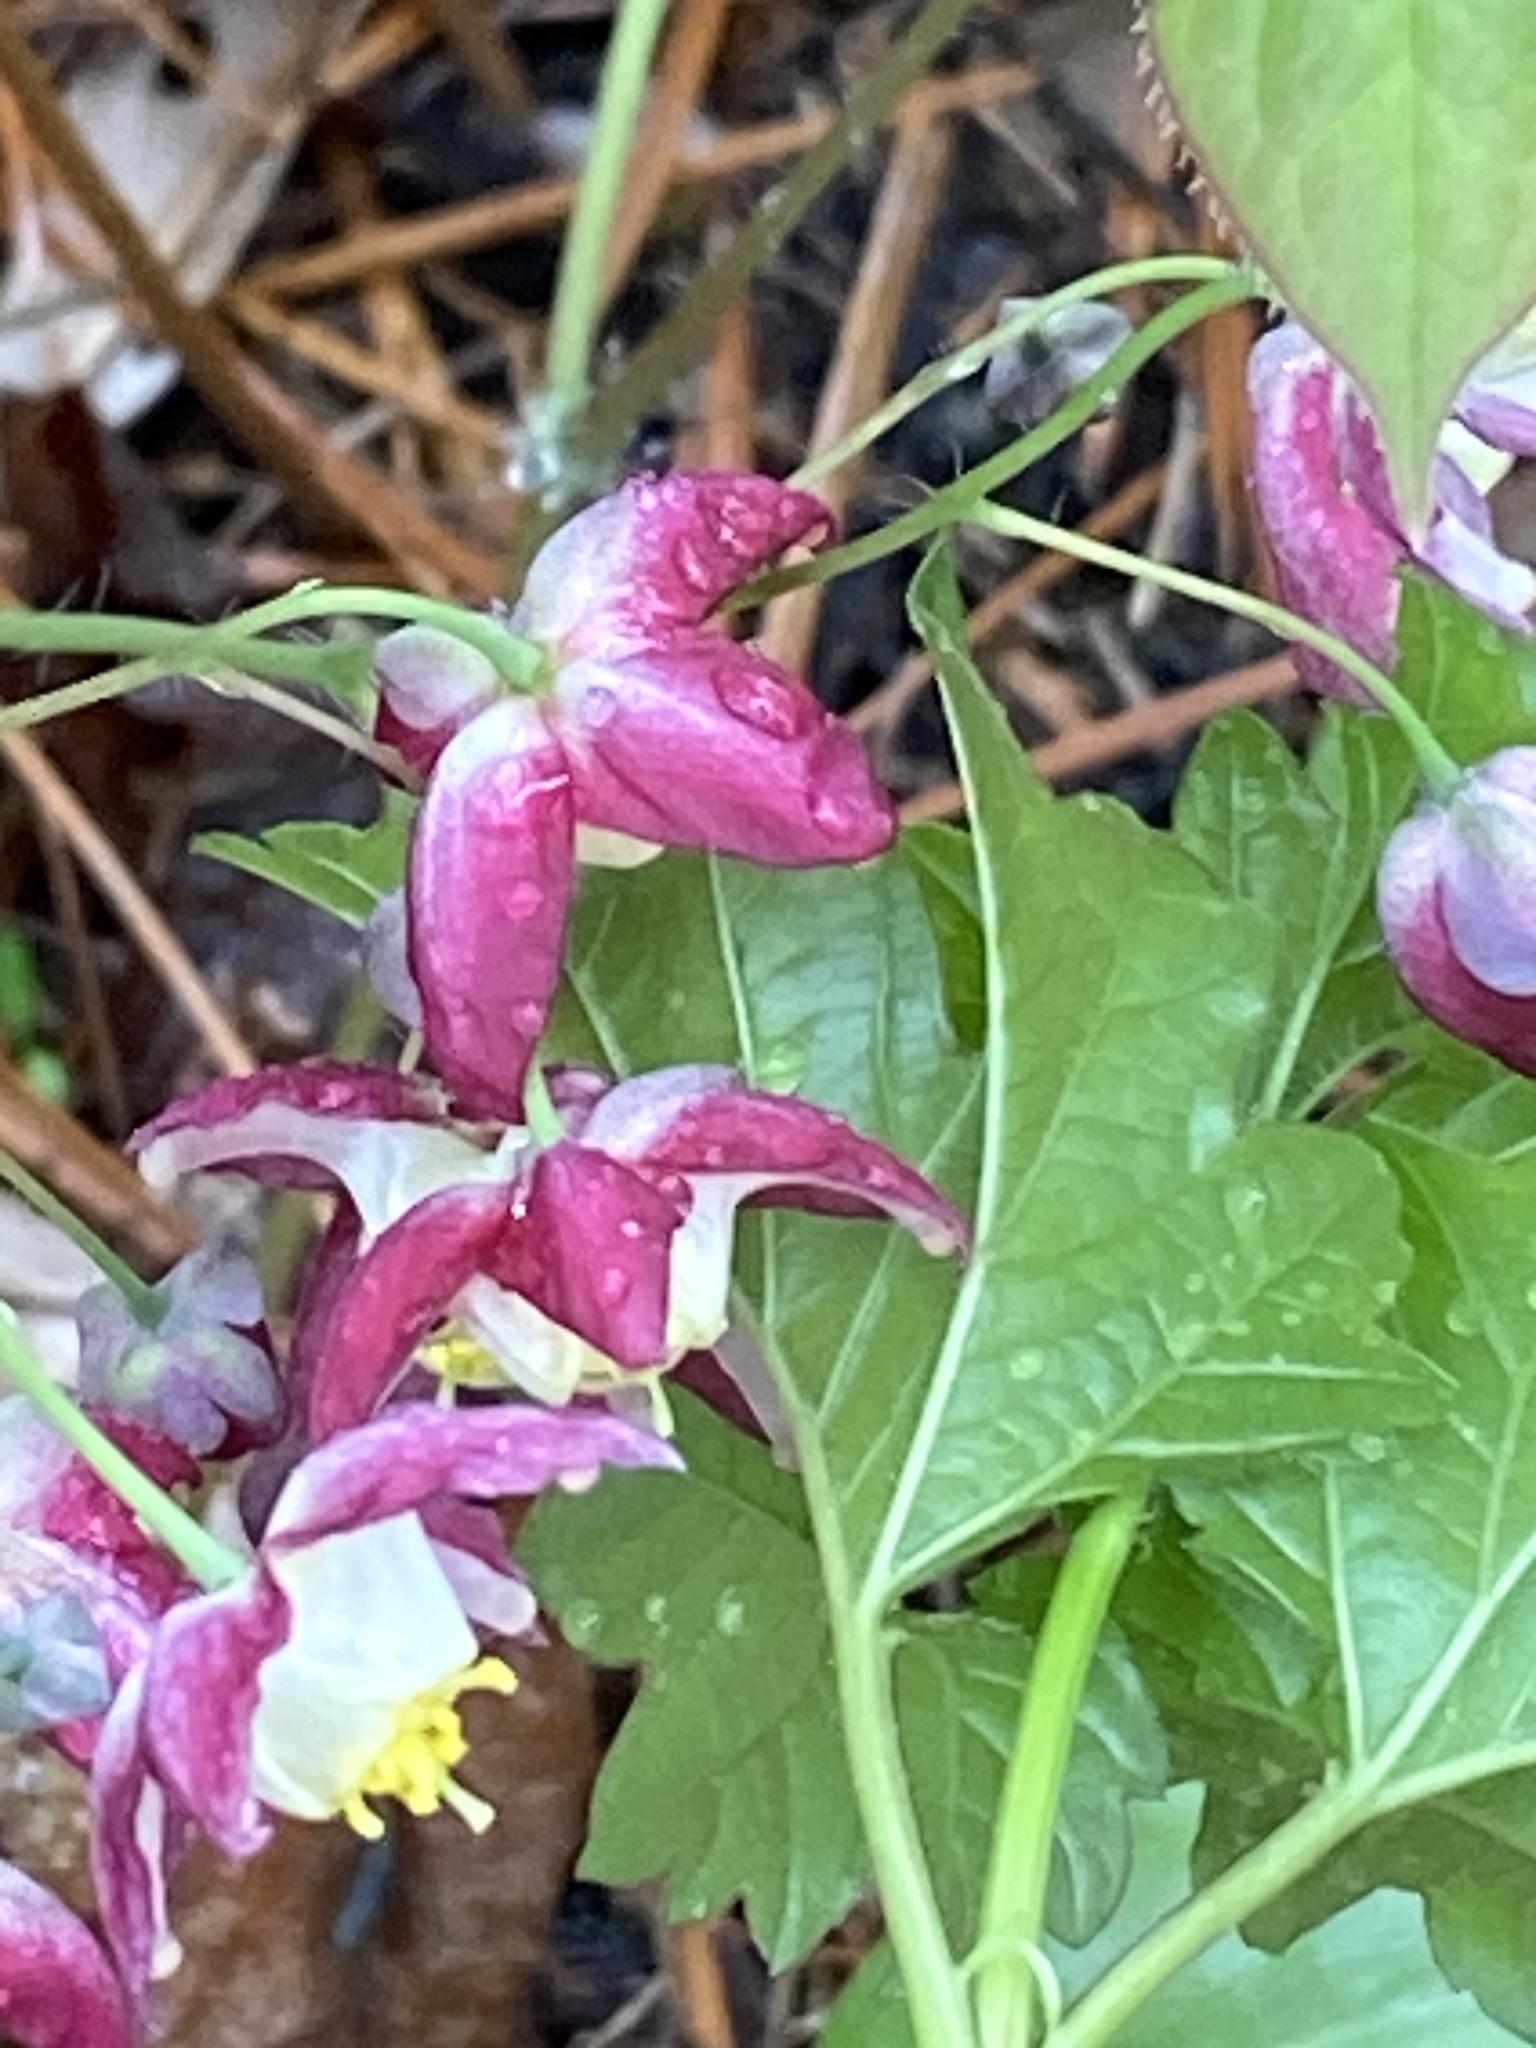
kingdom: Plantae
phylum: Tracheophyta
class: Magnoliopsida
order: Ranunculales
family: Berberidaceae
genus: Epimedium
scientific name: Epimedium rubrum
